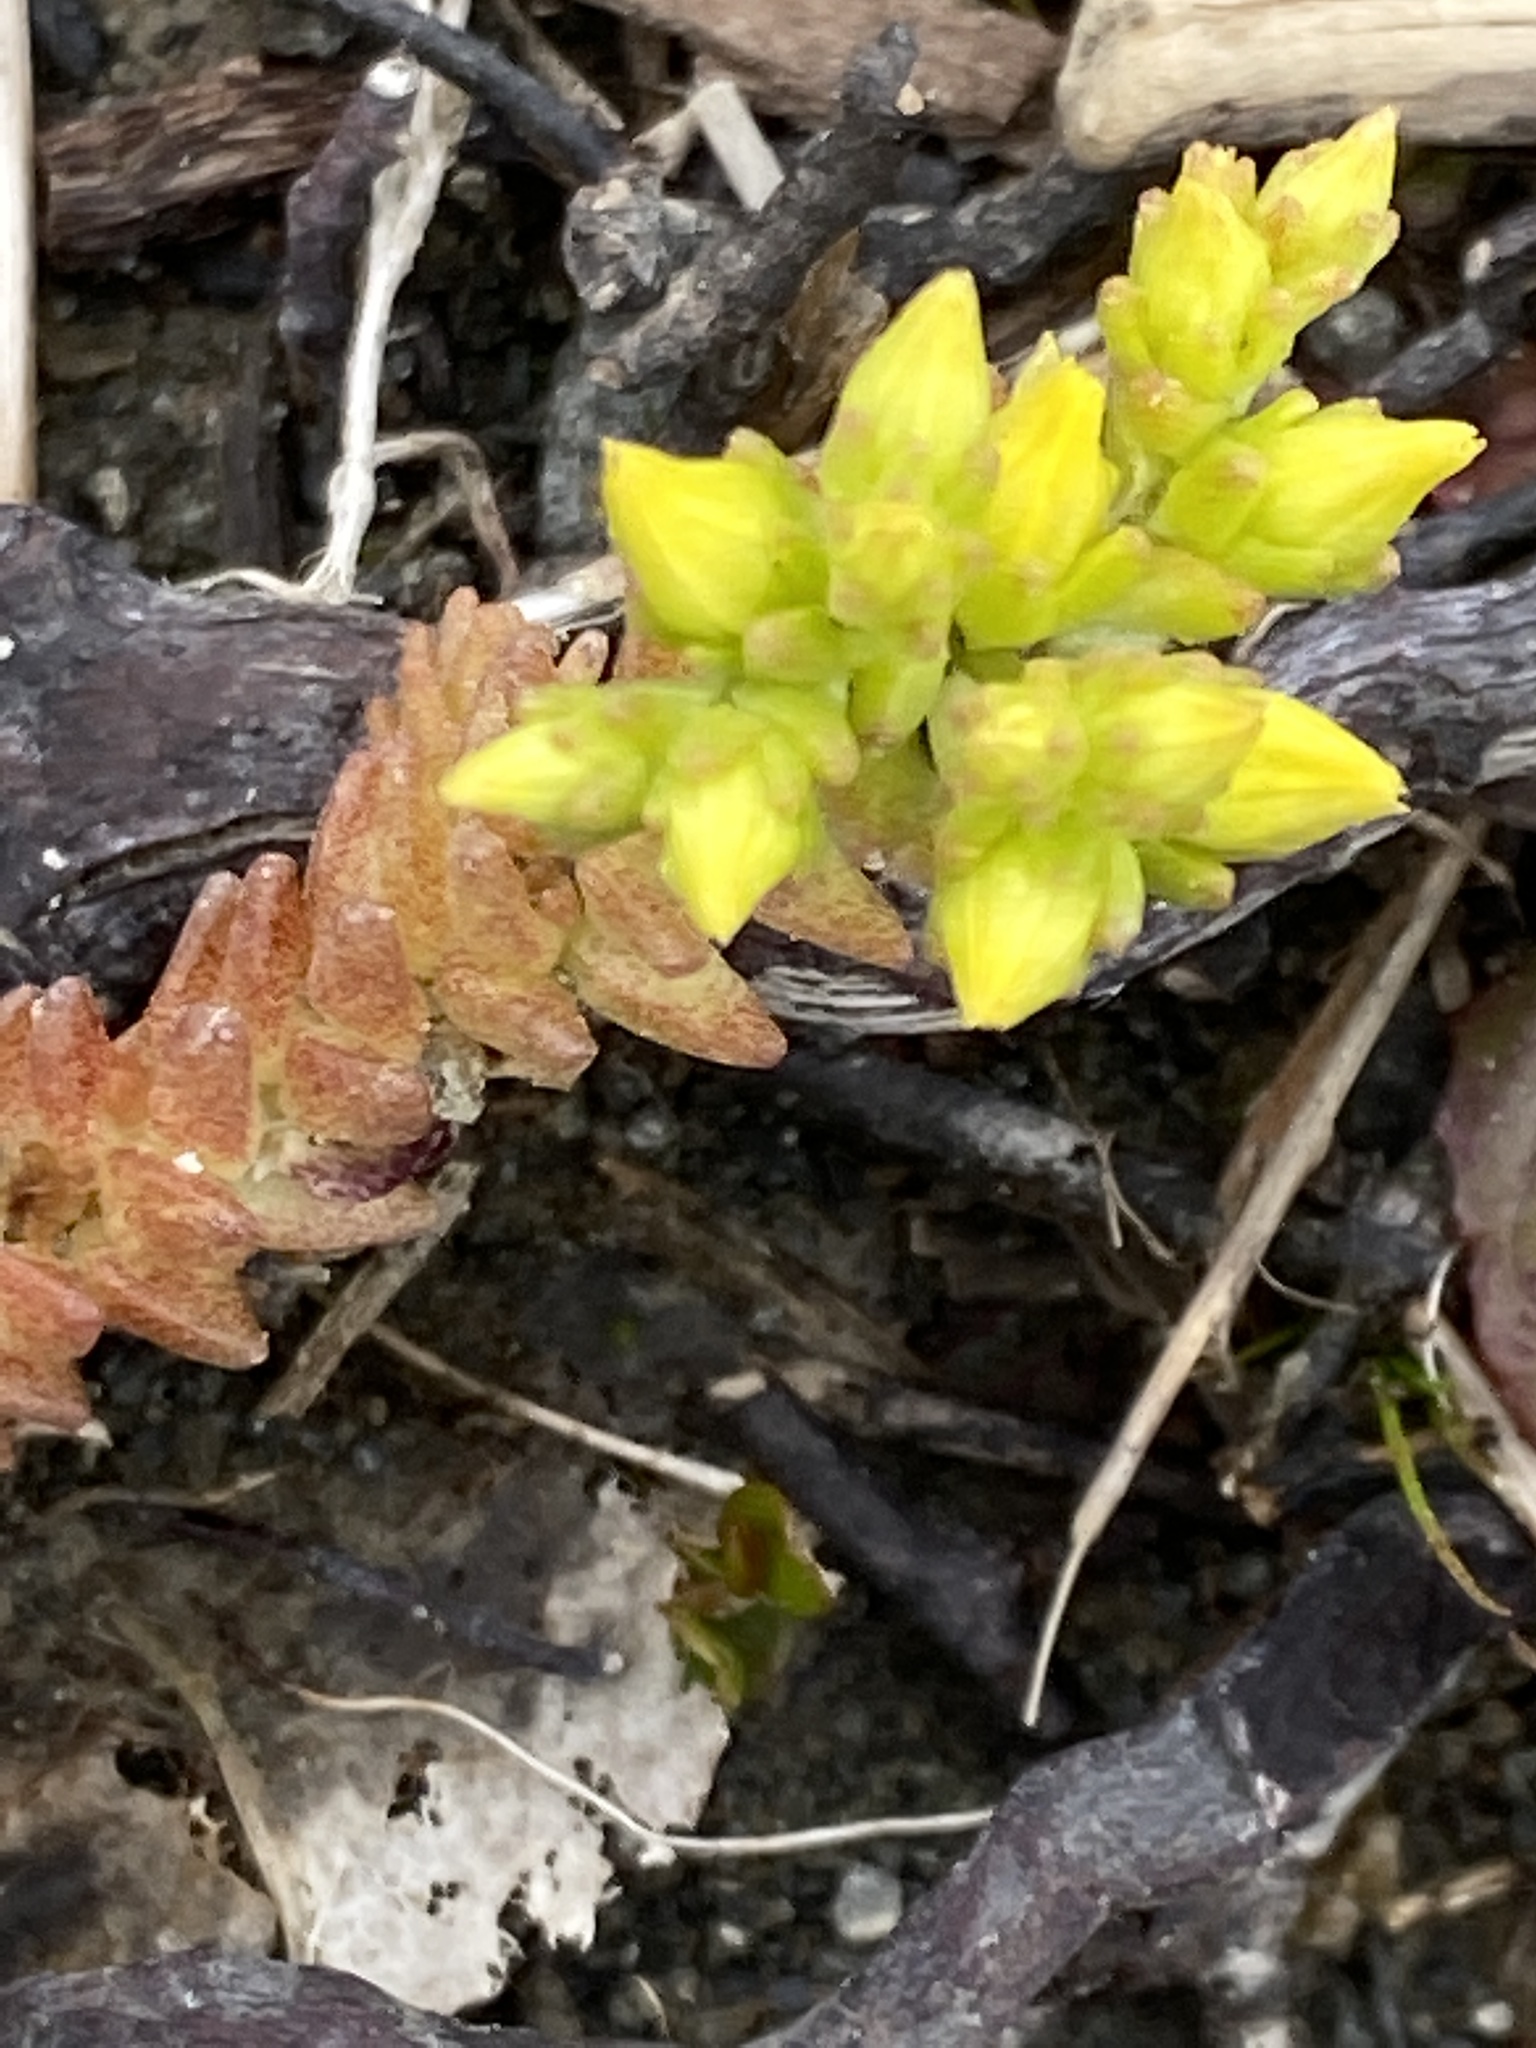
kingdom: Plantae
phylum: Tracheophyta
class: Magnoliopsida
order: Saxifragales
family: Crassulaceae
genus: Sedum
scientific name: Sedum acre
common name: Biting stonecrop
